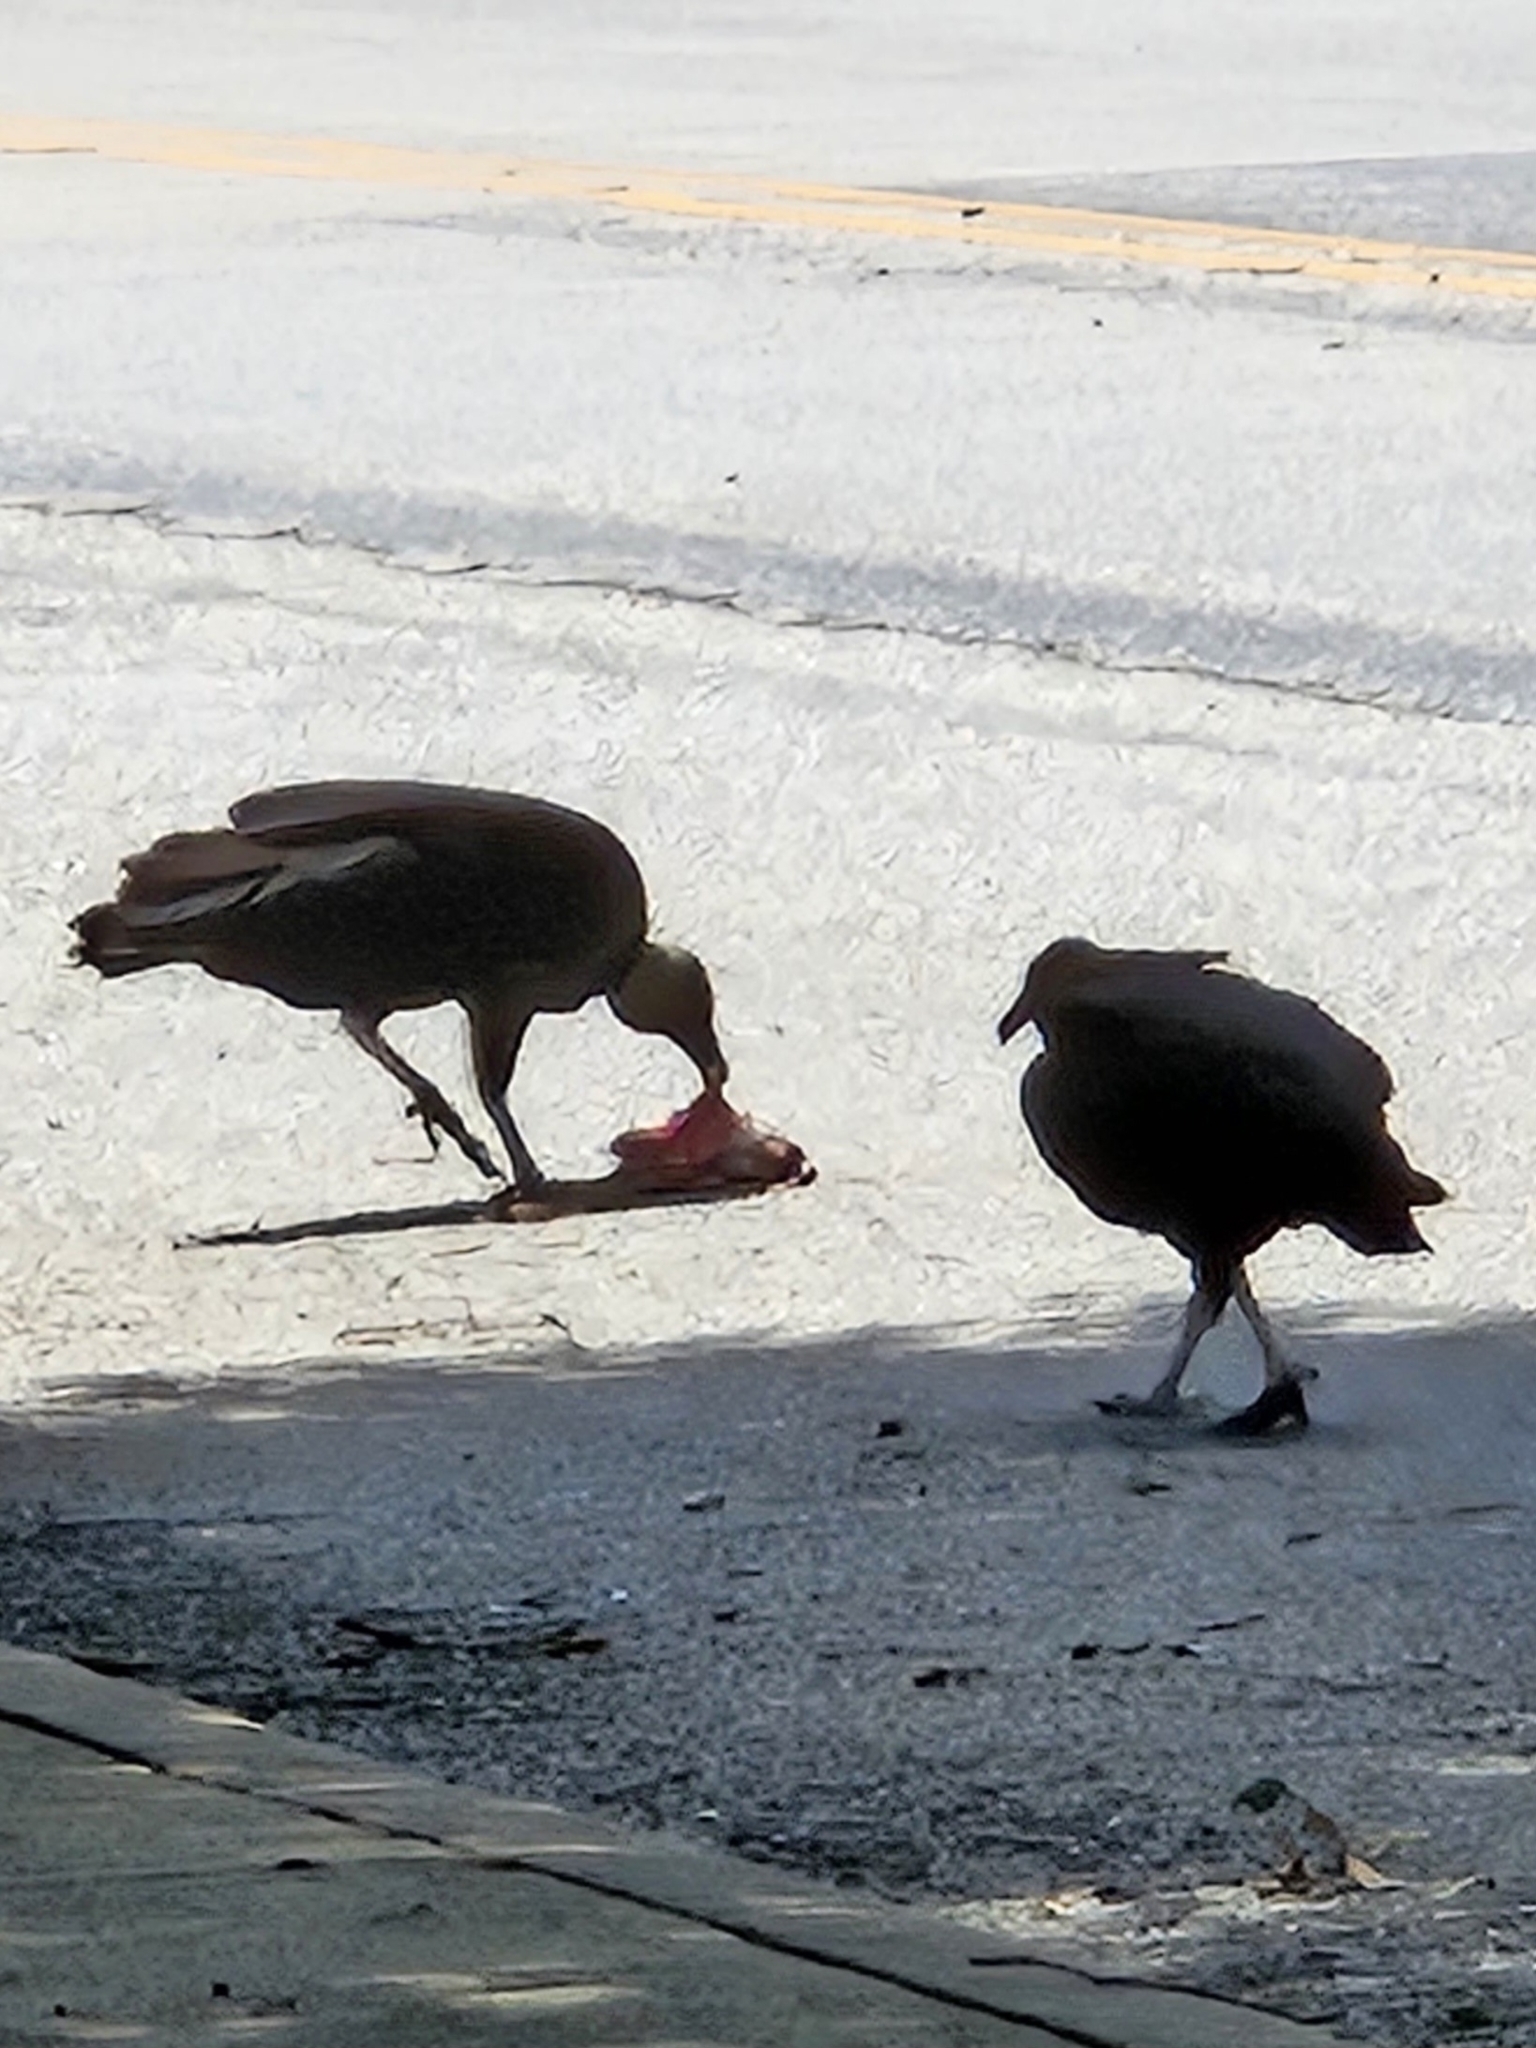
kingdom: Animalia
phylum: Chordata
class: Aves
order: Accipitriformes
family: Cathartidae
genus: Coragyps
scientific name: Coragyps atratus
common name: Black vulture
